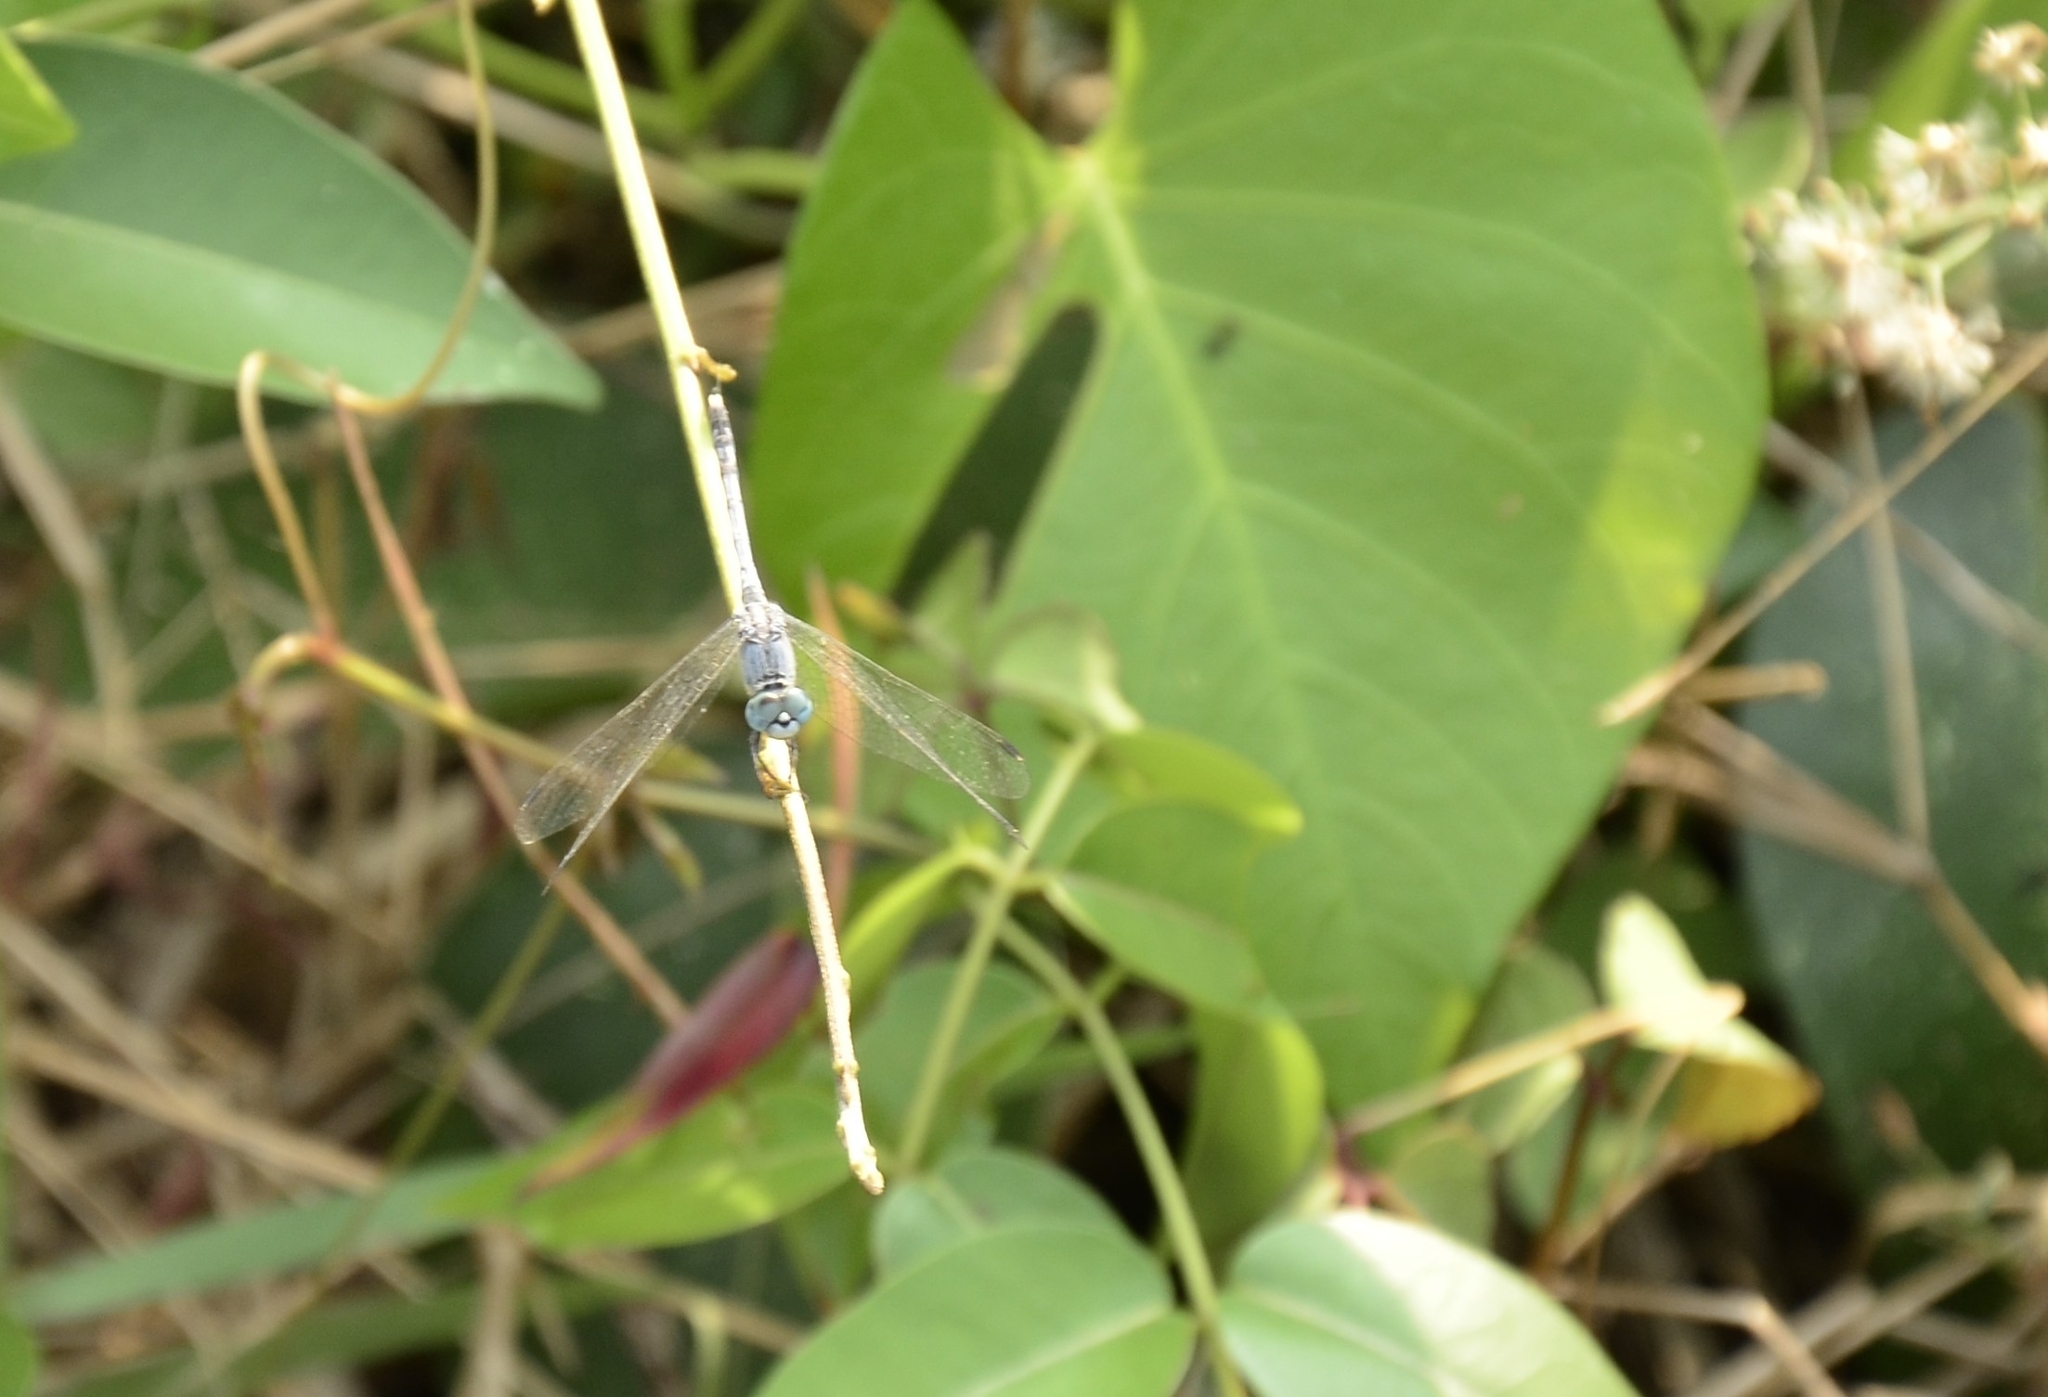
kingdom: Animalia
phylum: Arthropoda
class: Insecta
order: Odonata
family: Libellulidae
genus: Diplacodes
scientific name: Diplacodes trivialis
